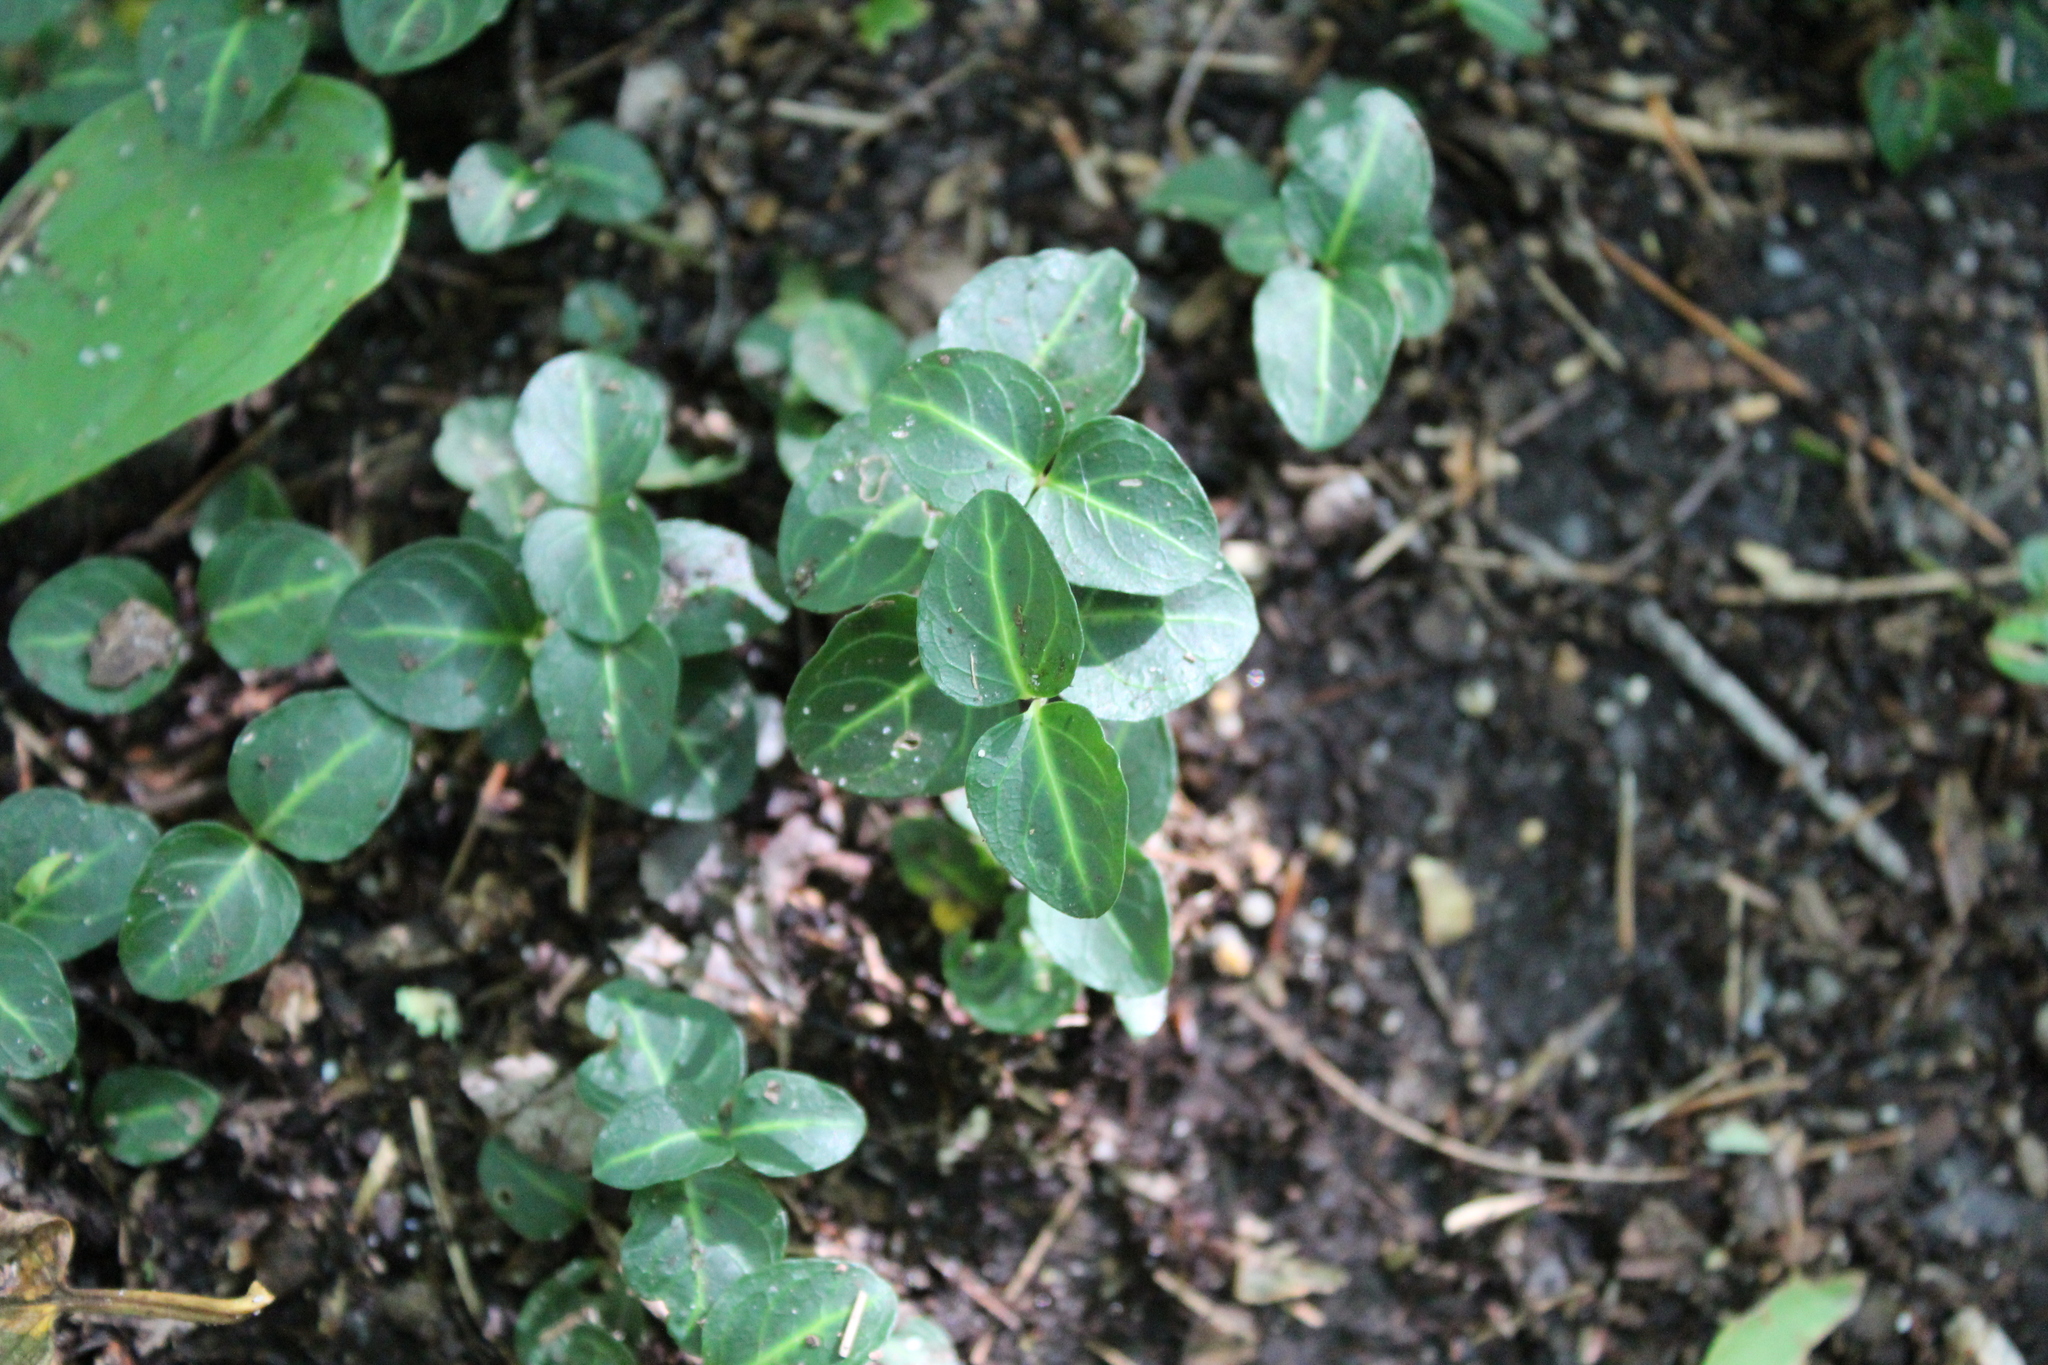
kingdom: Plantae
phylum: Tracheophyta
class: Magnoliopsida
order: Gentianales
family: Rubiaceae
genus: Mitchella
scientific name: Mitchella repens
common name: Partridge-berry
